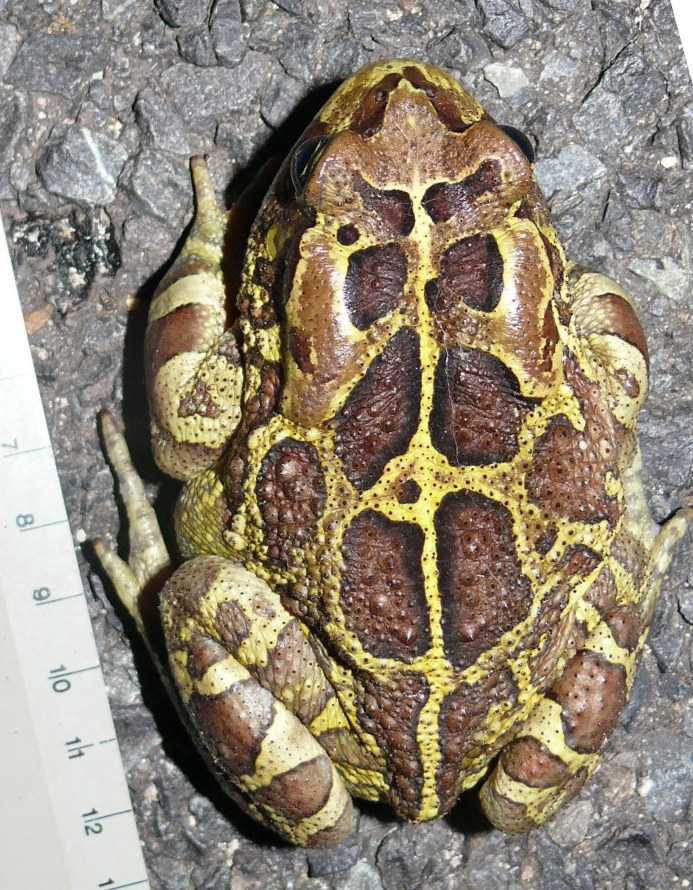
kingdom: Animalia
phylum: Chordata
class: Amphibia
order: Anura
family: Bufonidae
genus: Sclerophrys
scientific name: Sclerophrys pantherina
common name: Panther toad
